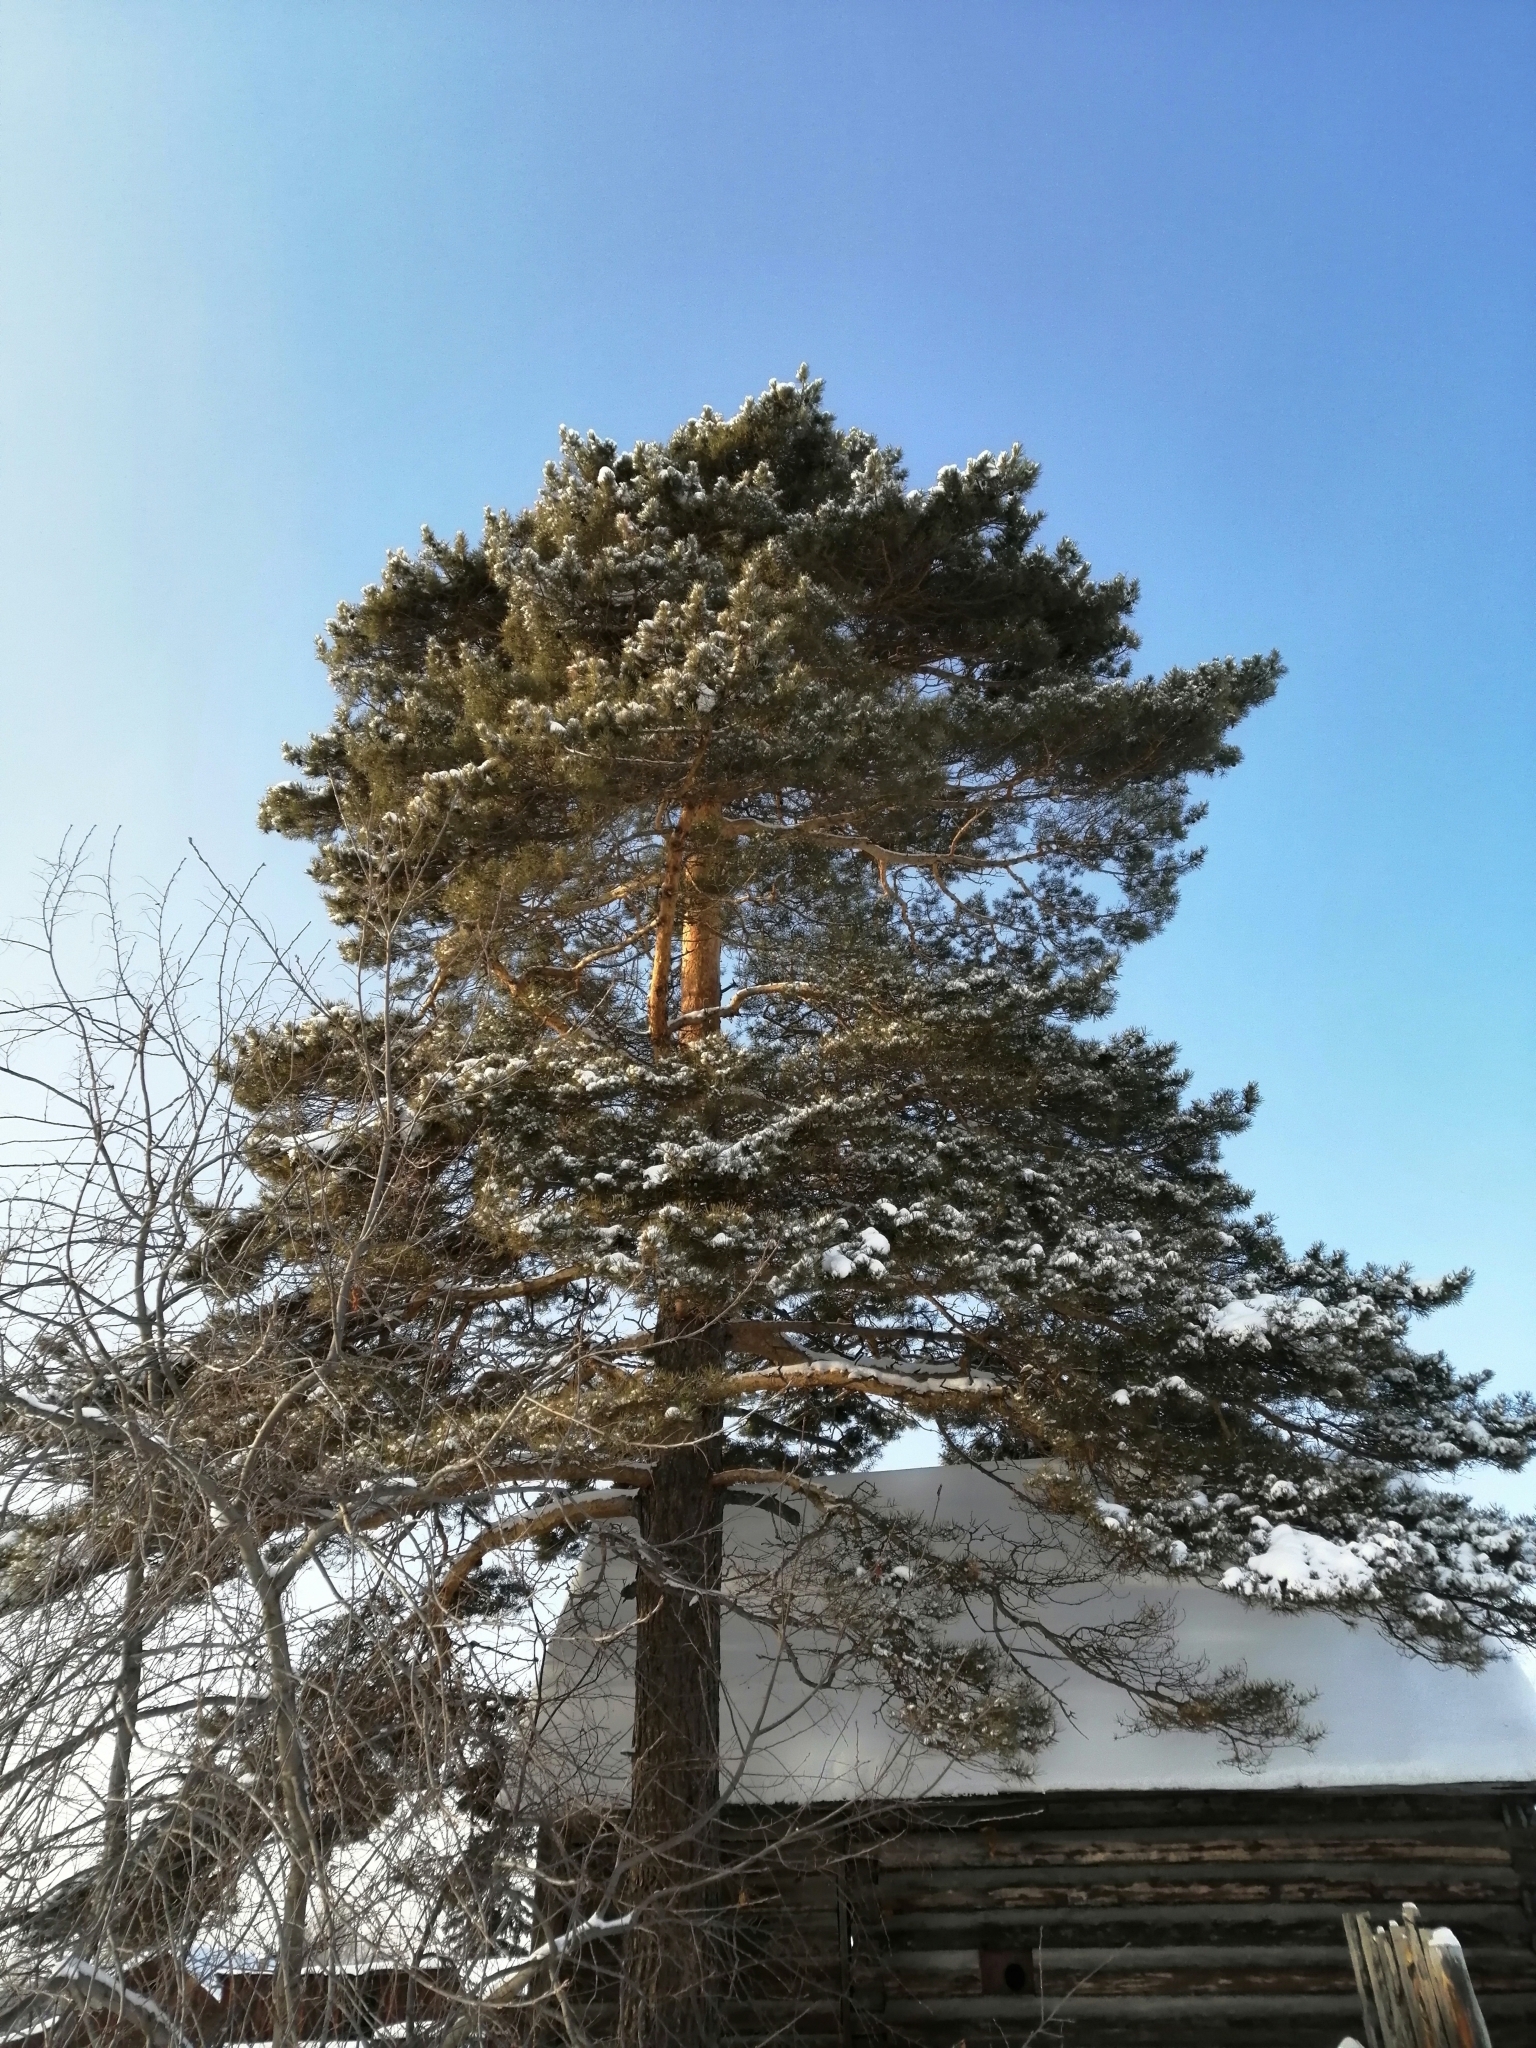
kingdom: Plantae
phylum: Tracheophyta
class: Pinopsida
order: Pinales
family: Pinaceae
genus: Pinus
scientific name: Pinus sylvestris
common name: Scots pine
